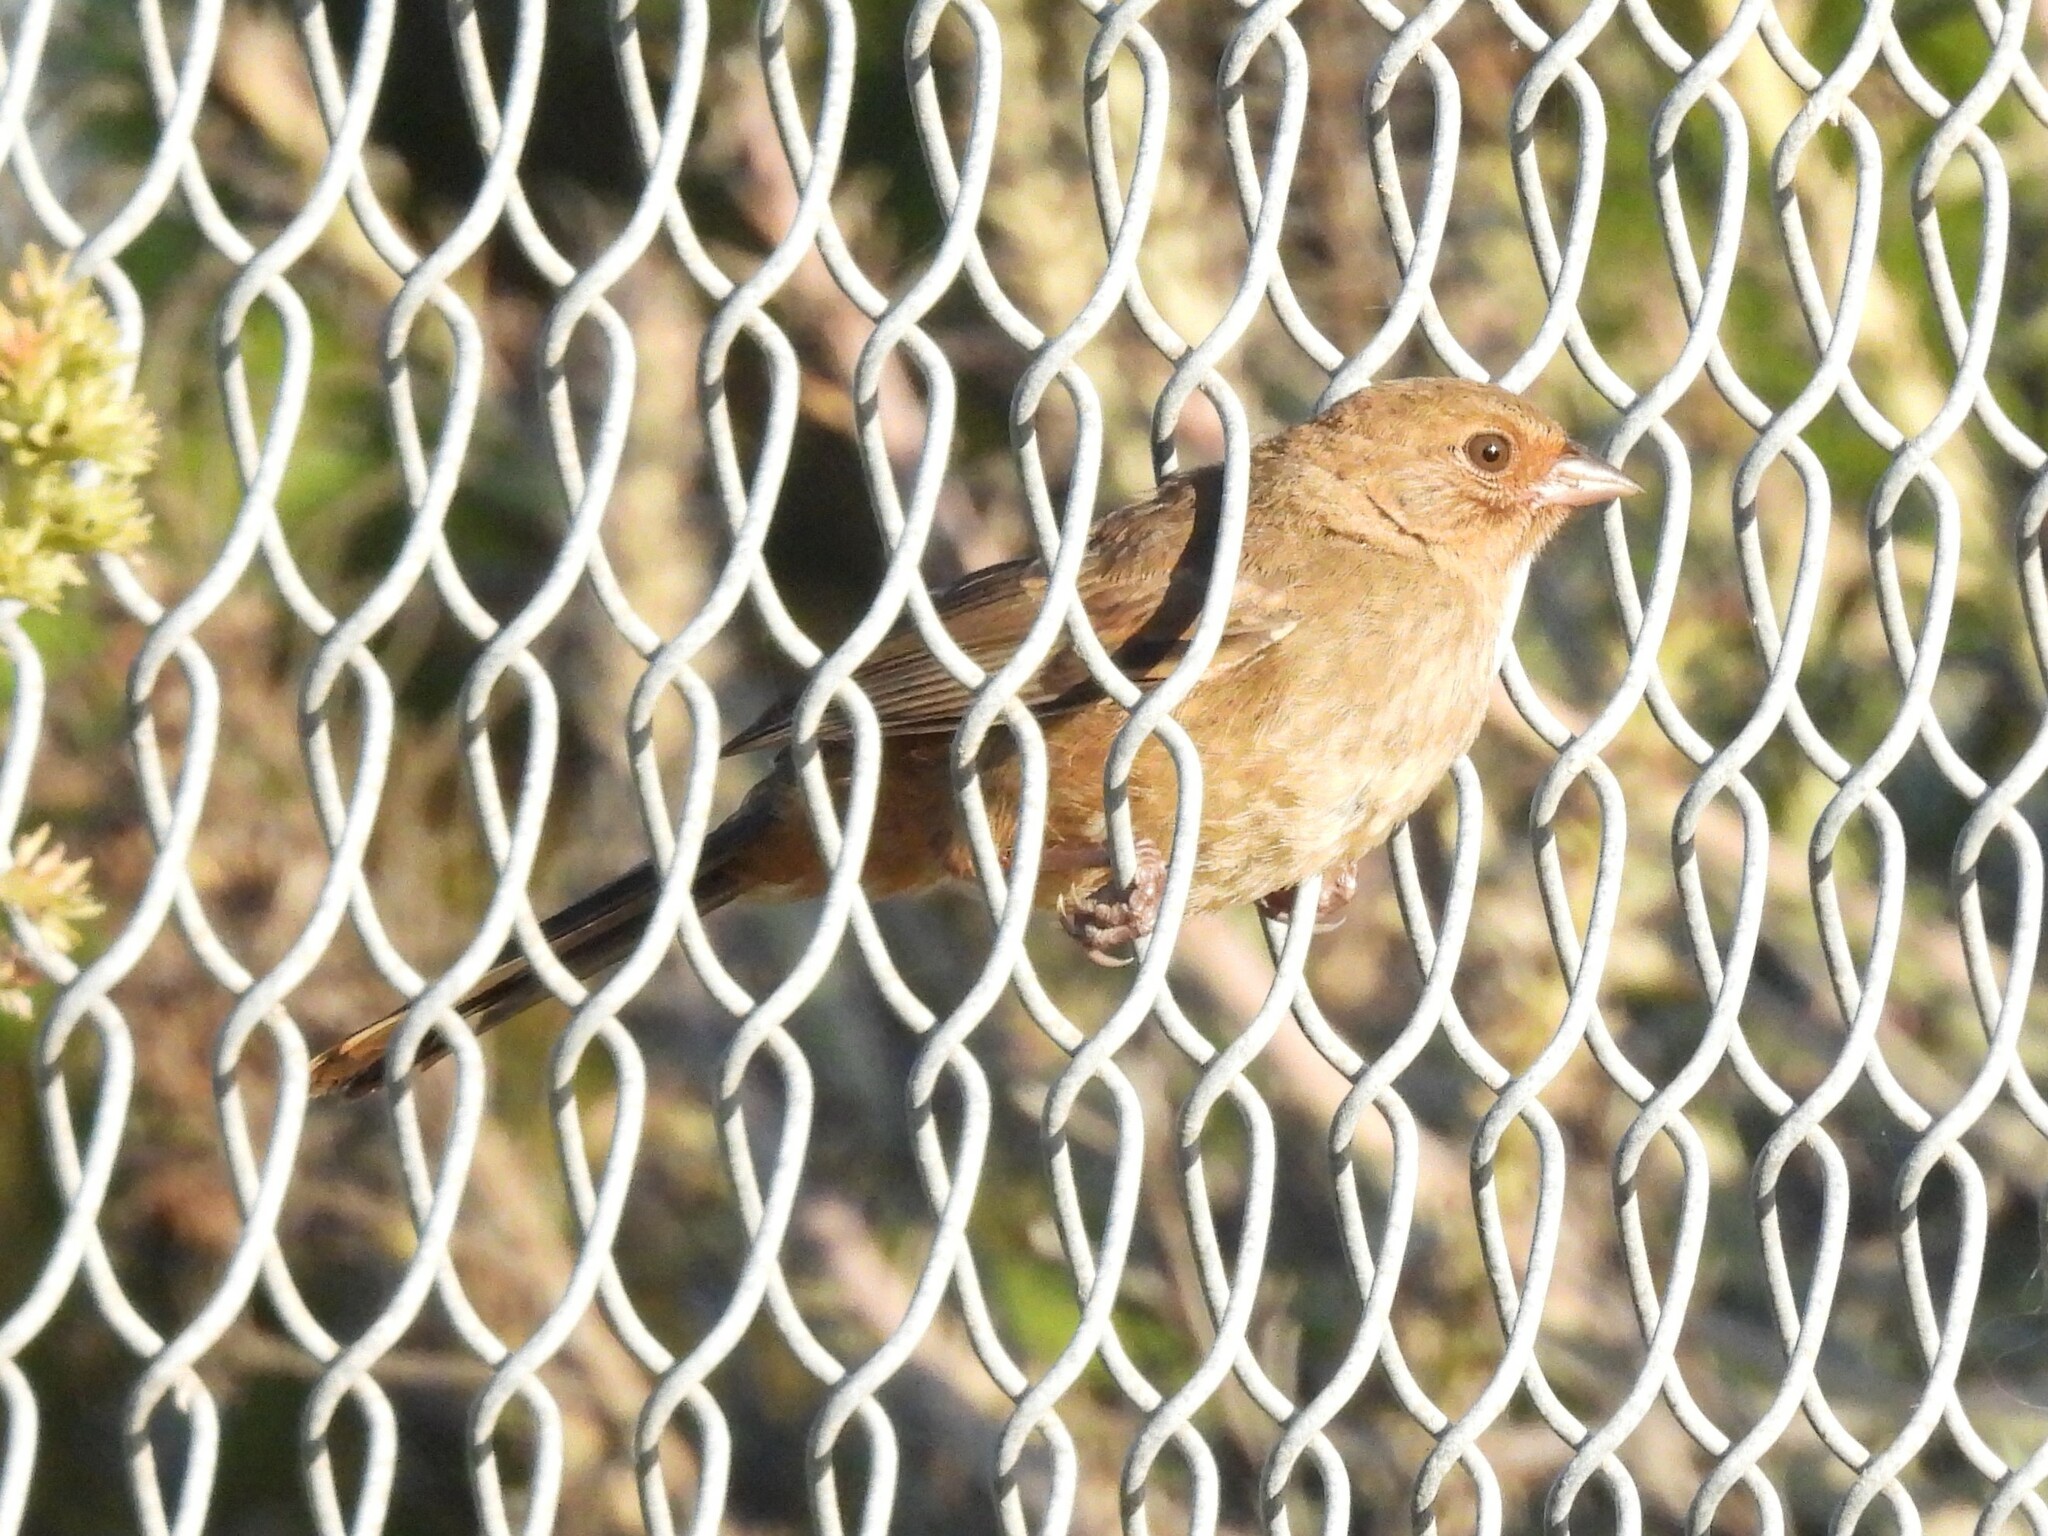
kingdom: Animalia
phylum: Chordata
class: Aves
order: Passeriformes
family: Passerellidae
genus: Melozone
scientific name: Melozone crissalis
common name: California towhee
